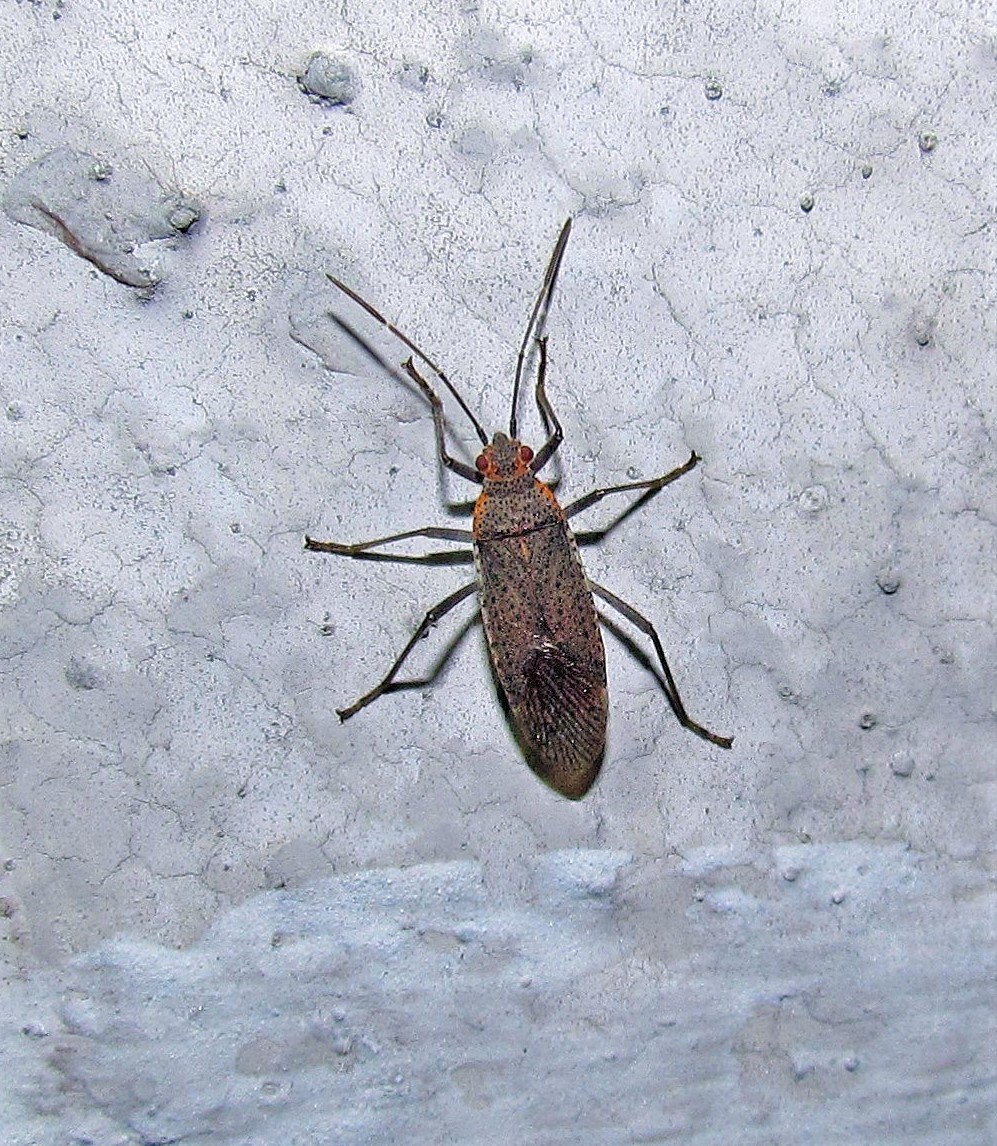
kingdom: Animalia
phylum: Arthropoda
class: Insecta
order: Hemiptera
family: Rhopalidae
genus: Jadera
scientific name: Jadera coturnix
